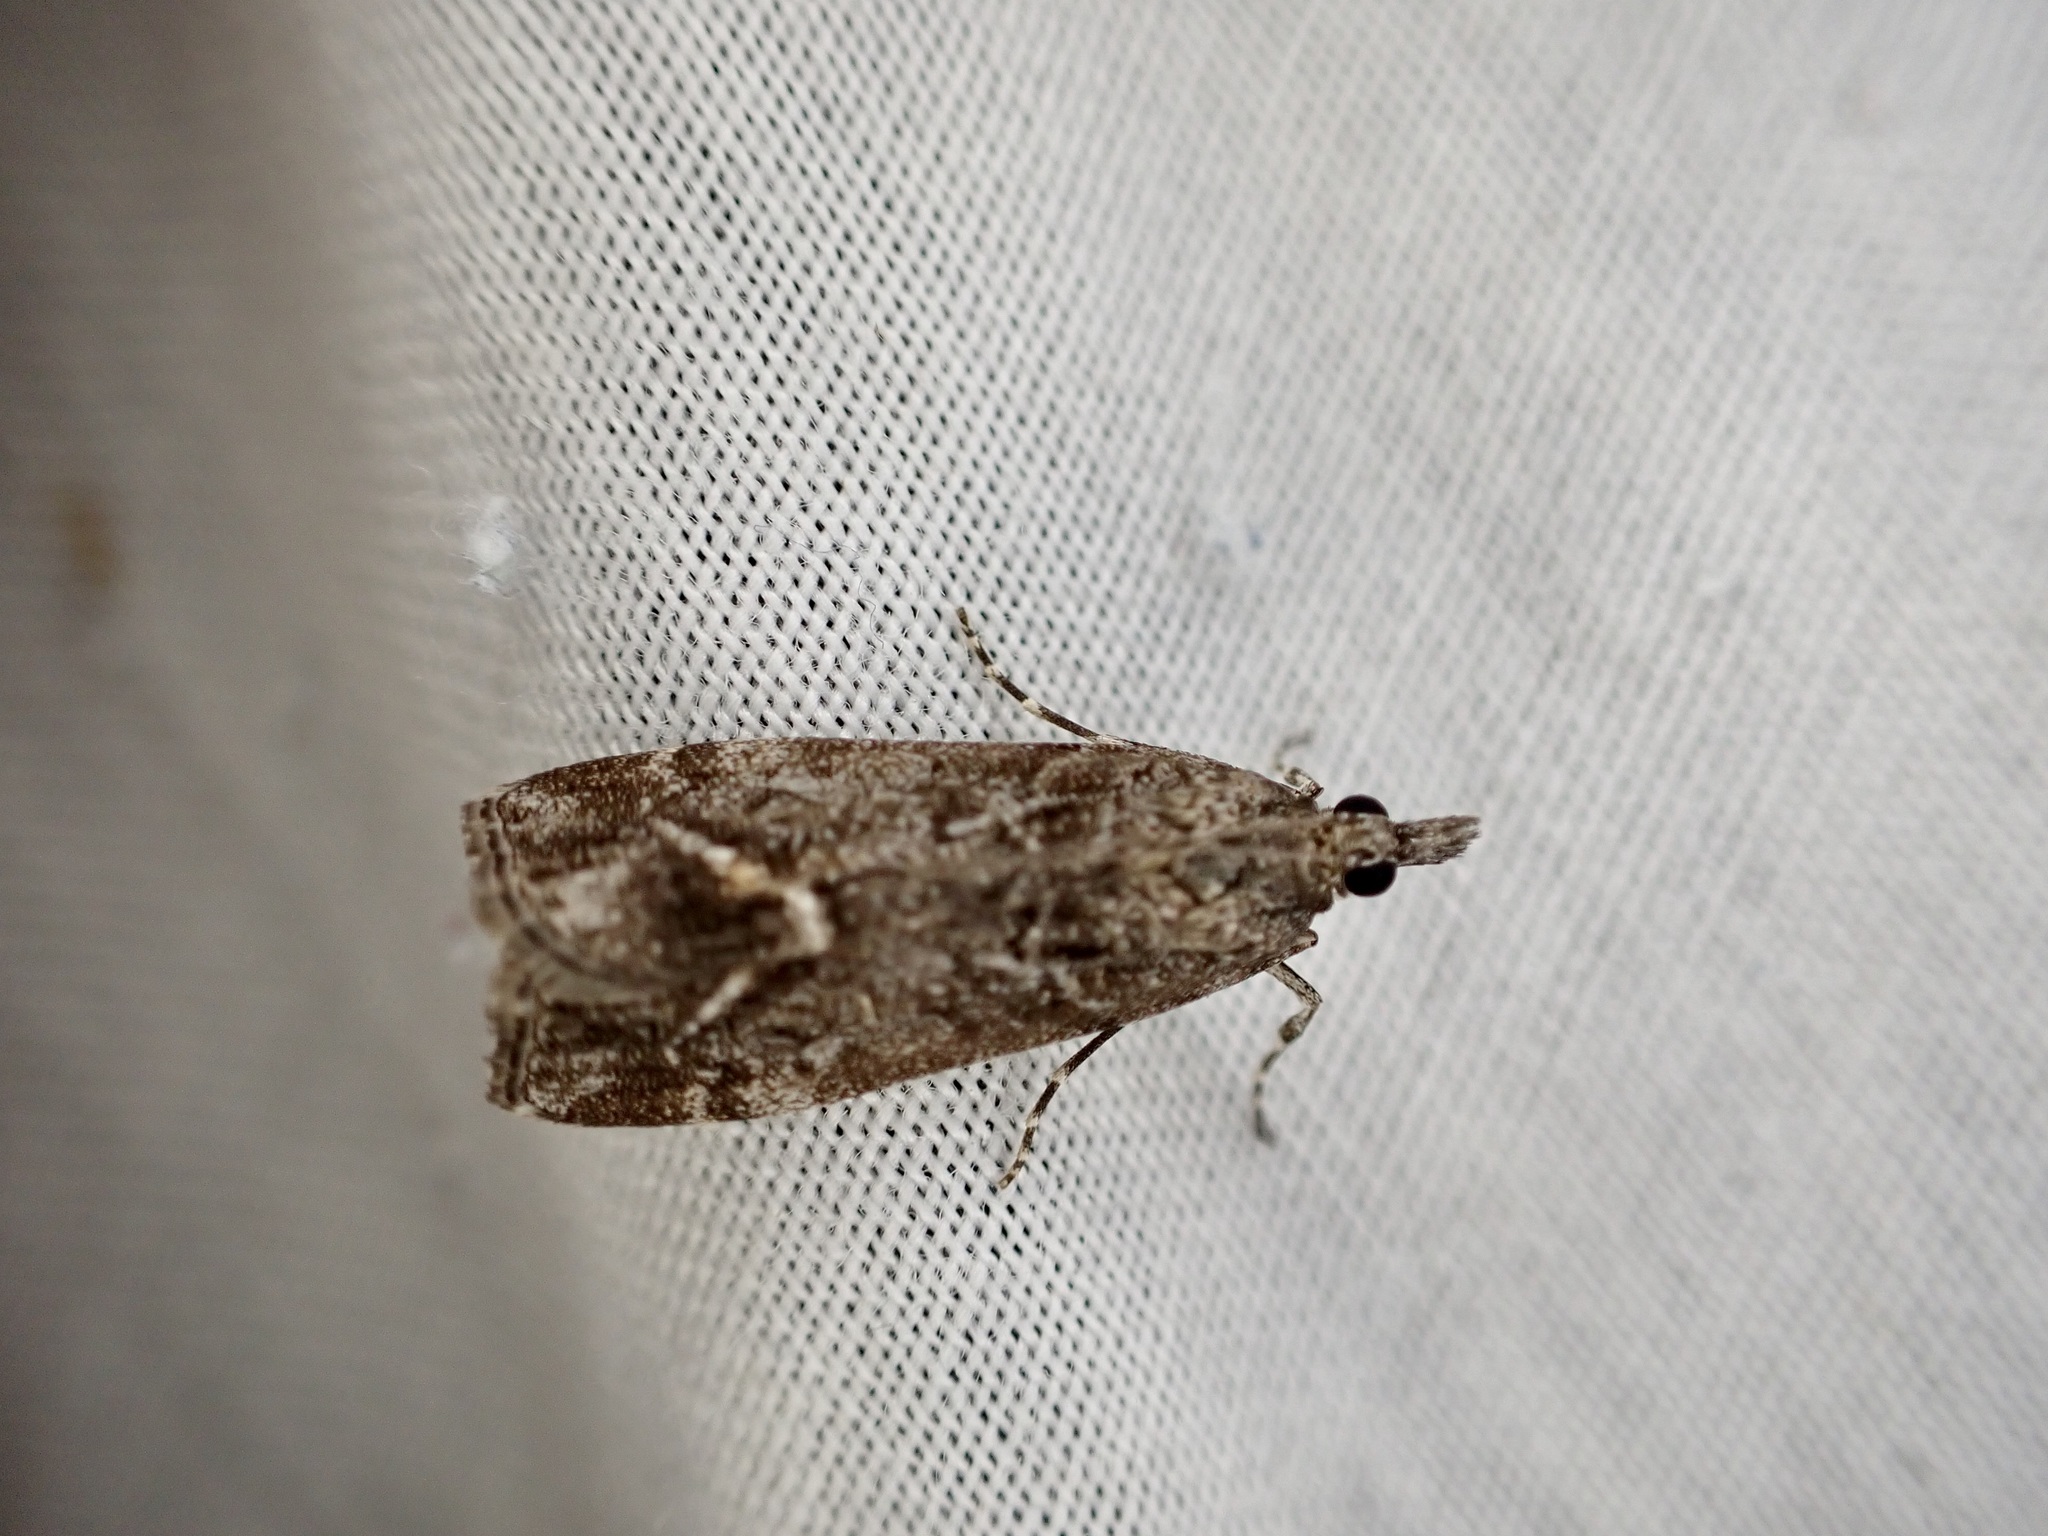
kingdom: Animalia
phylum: Arthropoda
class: Insecta
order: Lepidoptera
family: Crambidae
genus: Eudonia
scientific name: Eudonia submarginalis
